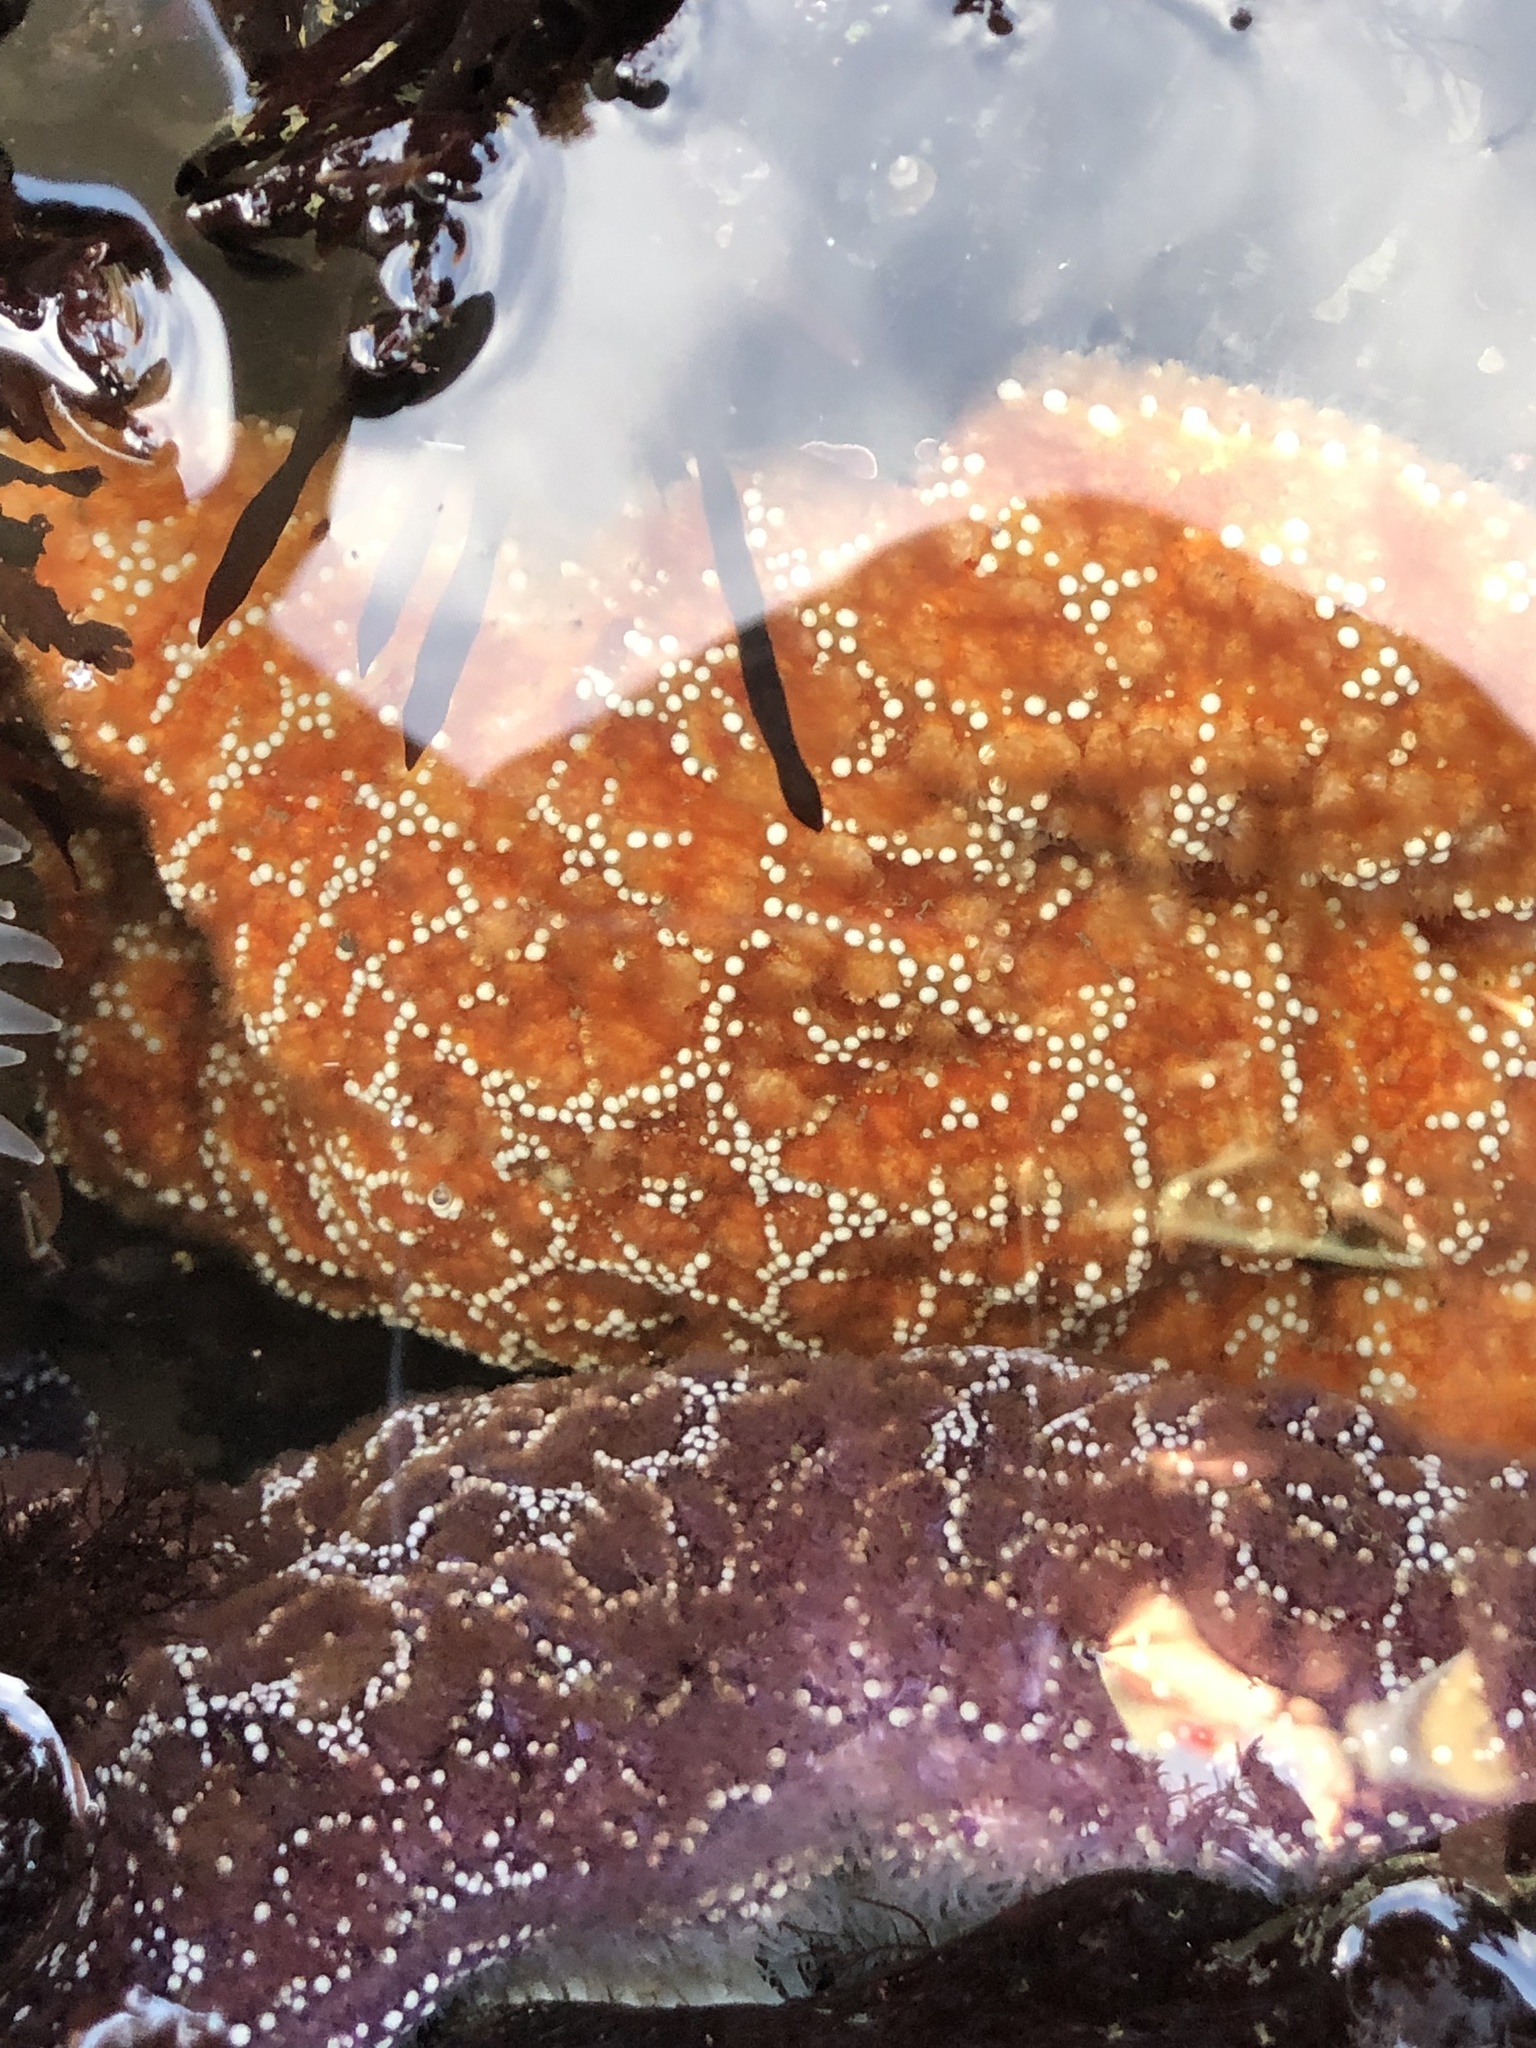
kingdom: Animalia
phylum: Echinodermata
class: Asteroidea
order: Forcipulatida
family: Asteriidae
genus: Pisaster
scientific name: Pisaster ochraceus
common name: Ochre stars
